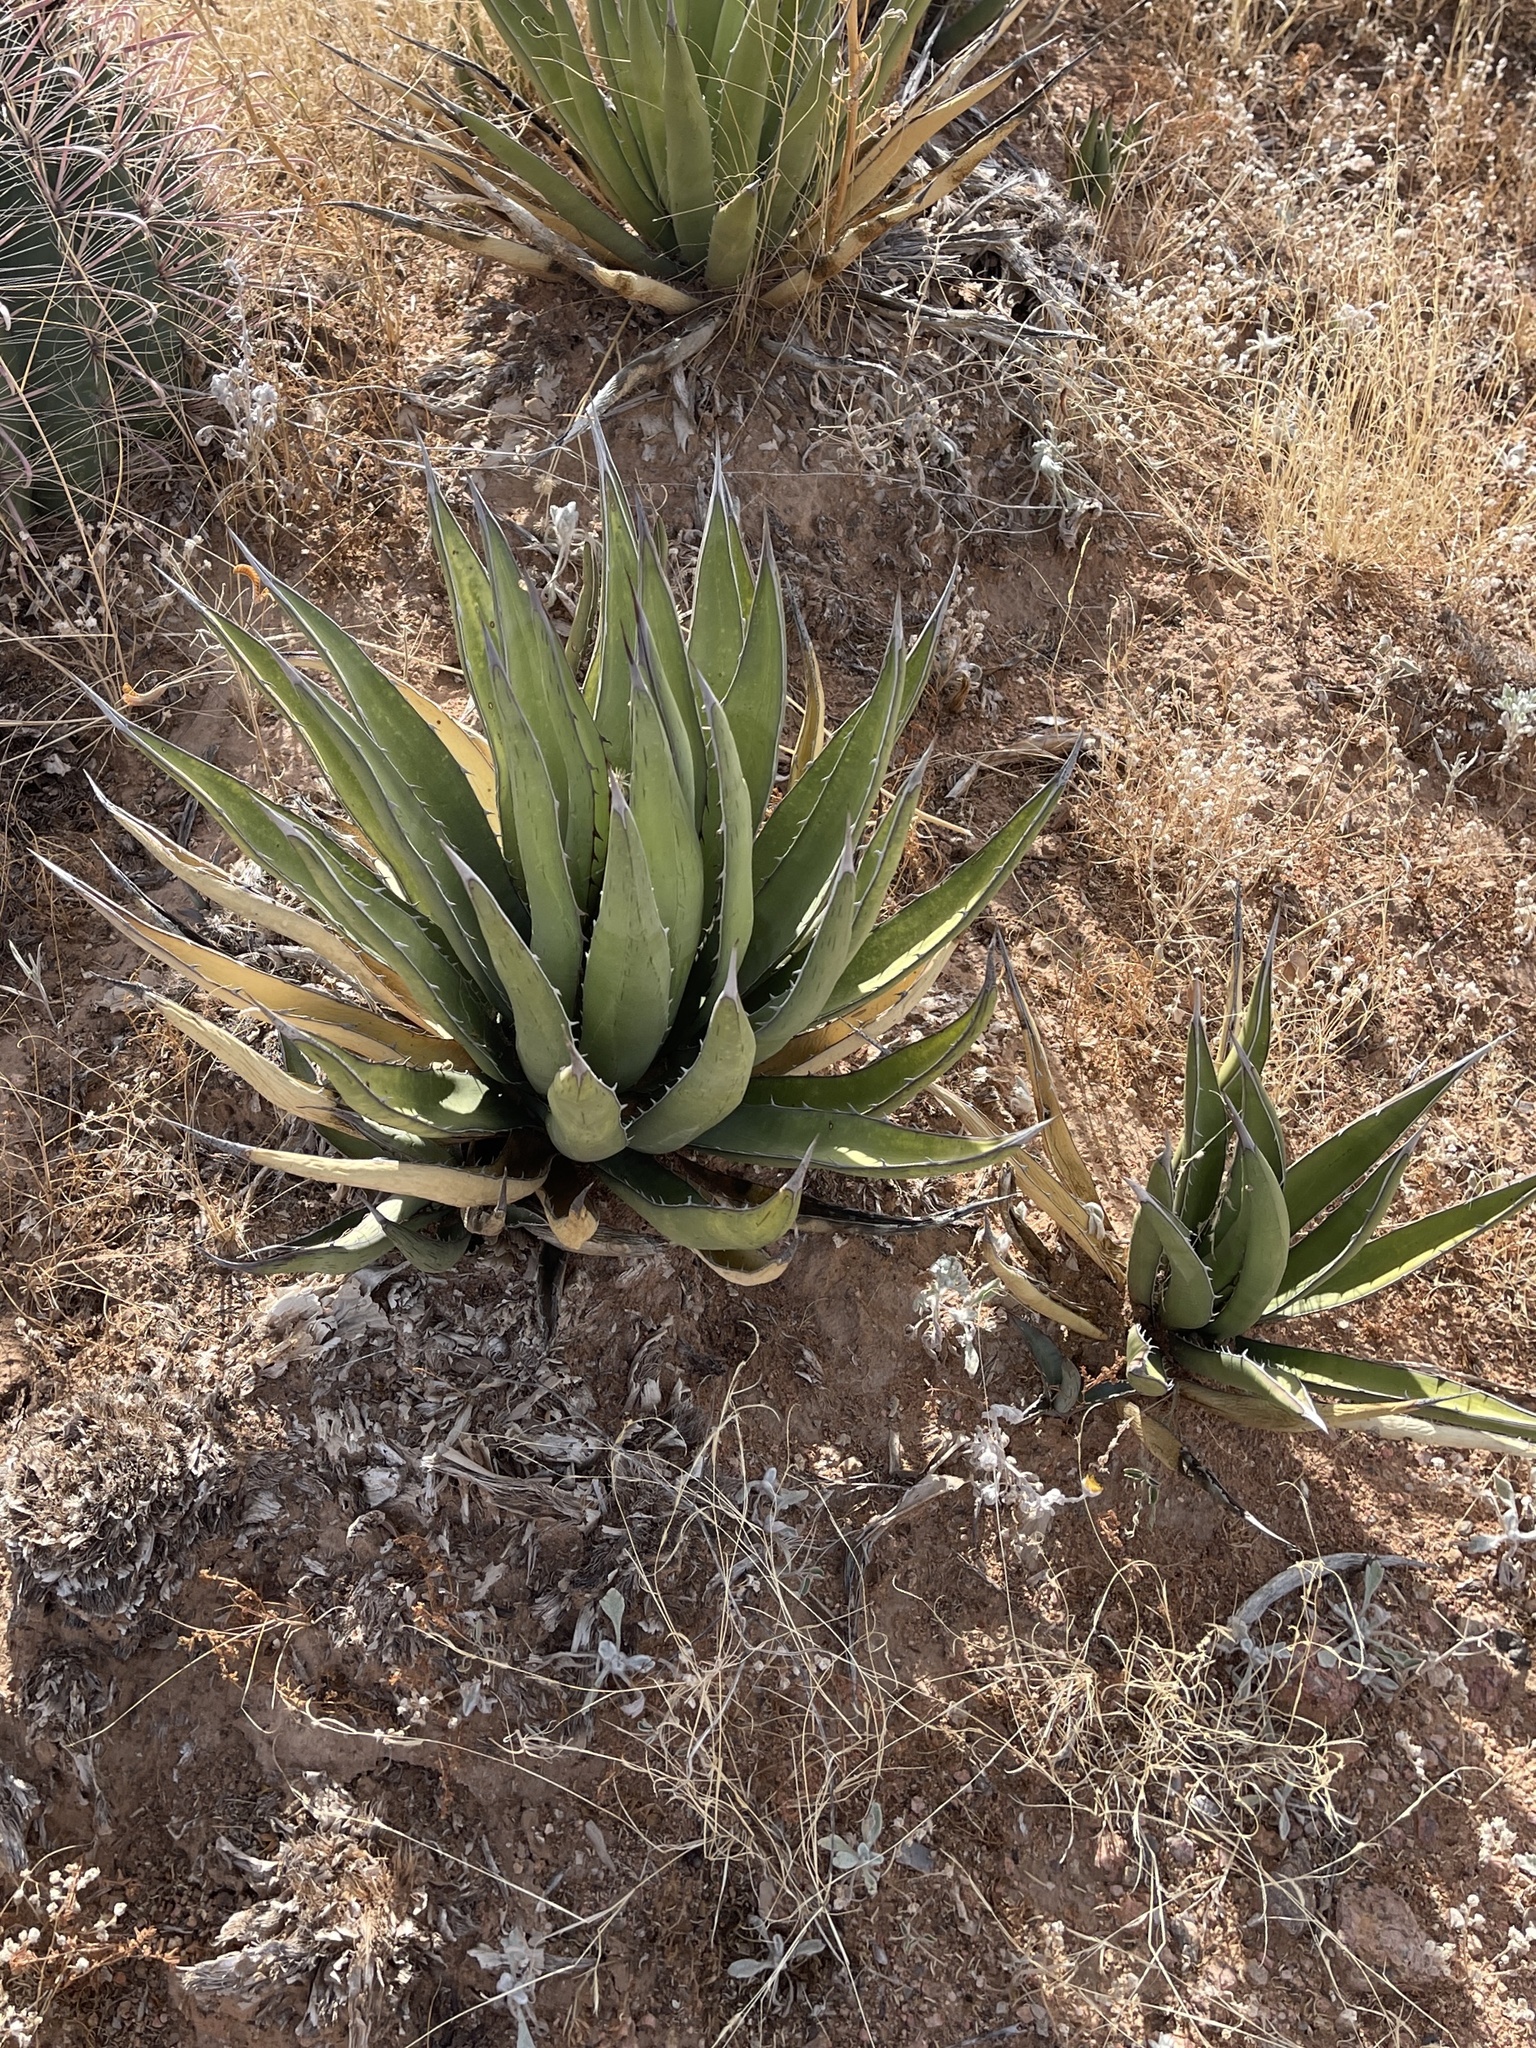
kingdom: Plantae
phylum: Tracheophyta
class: Liliopsida
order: Asparagales
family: Asparagaceae
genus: Agave
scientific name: Agave lechuguilla
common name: Lecheguilla agave
